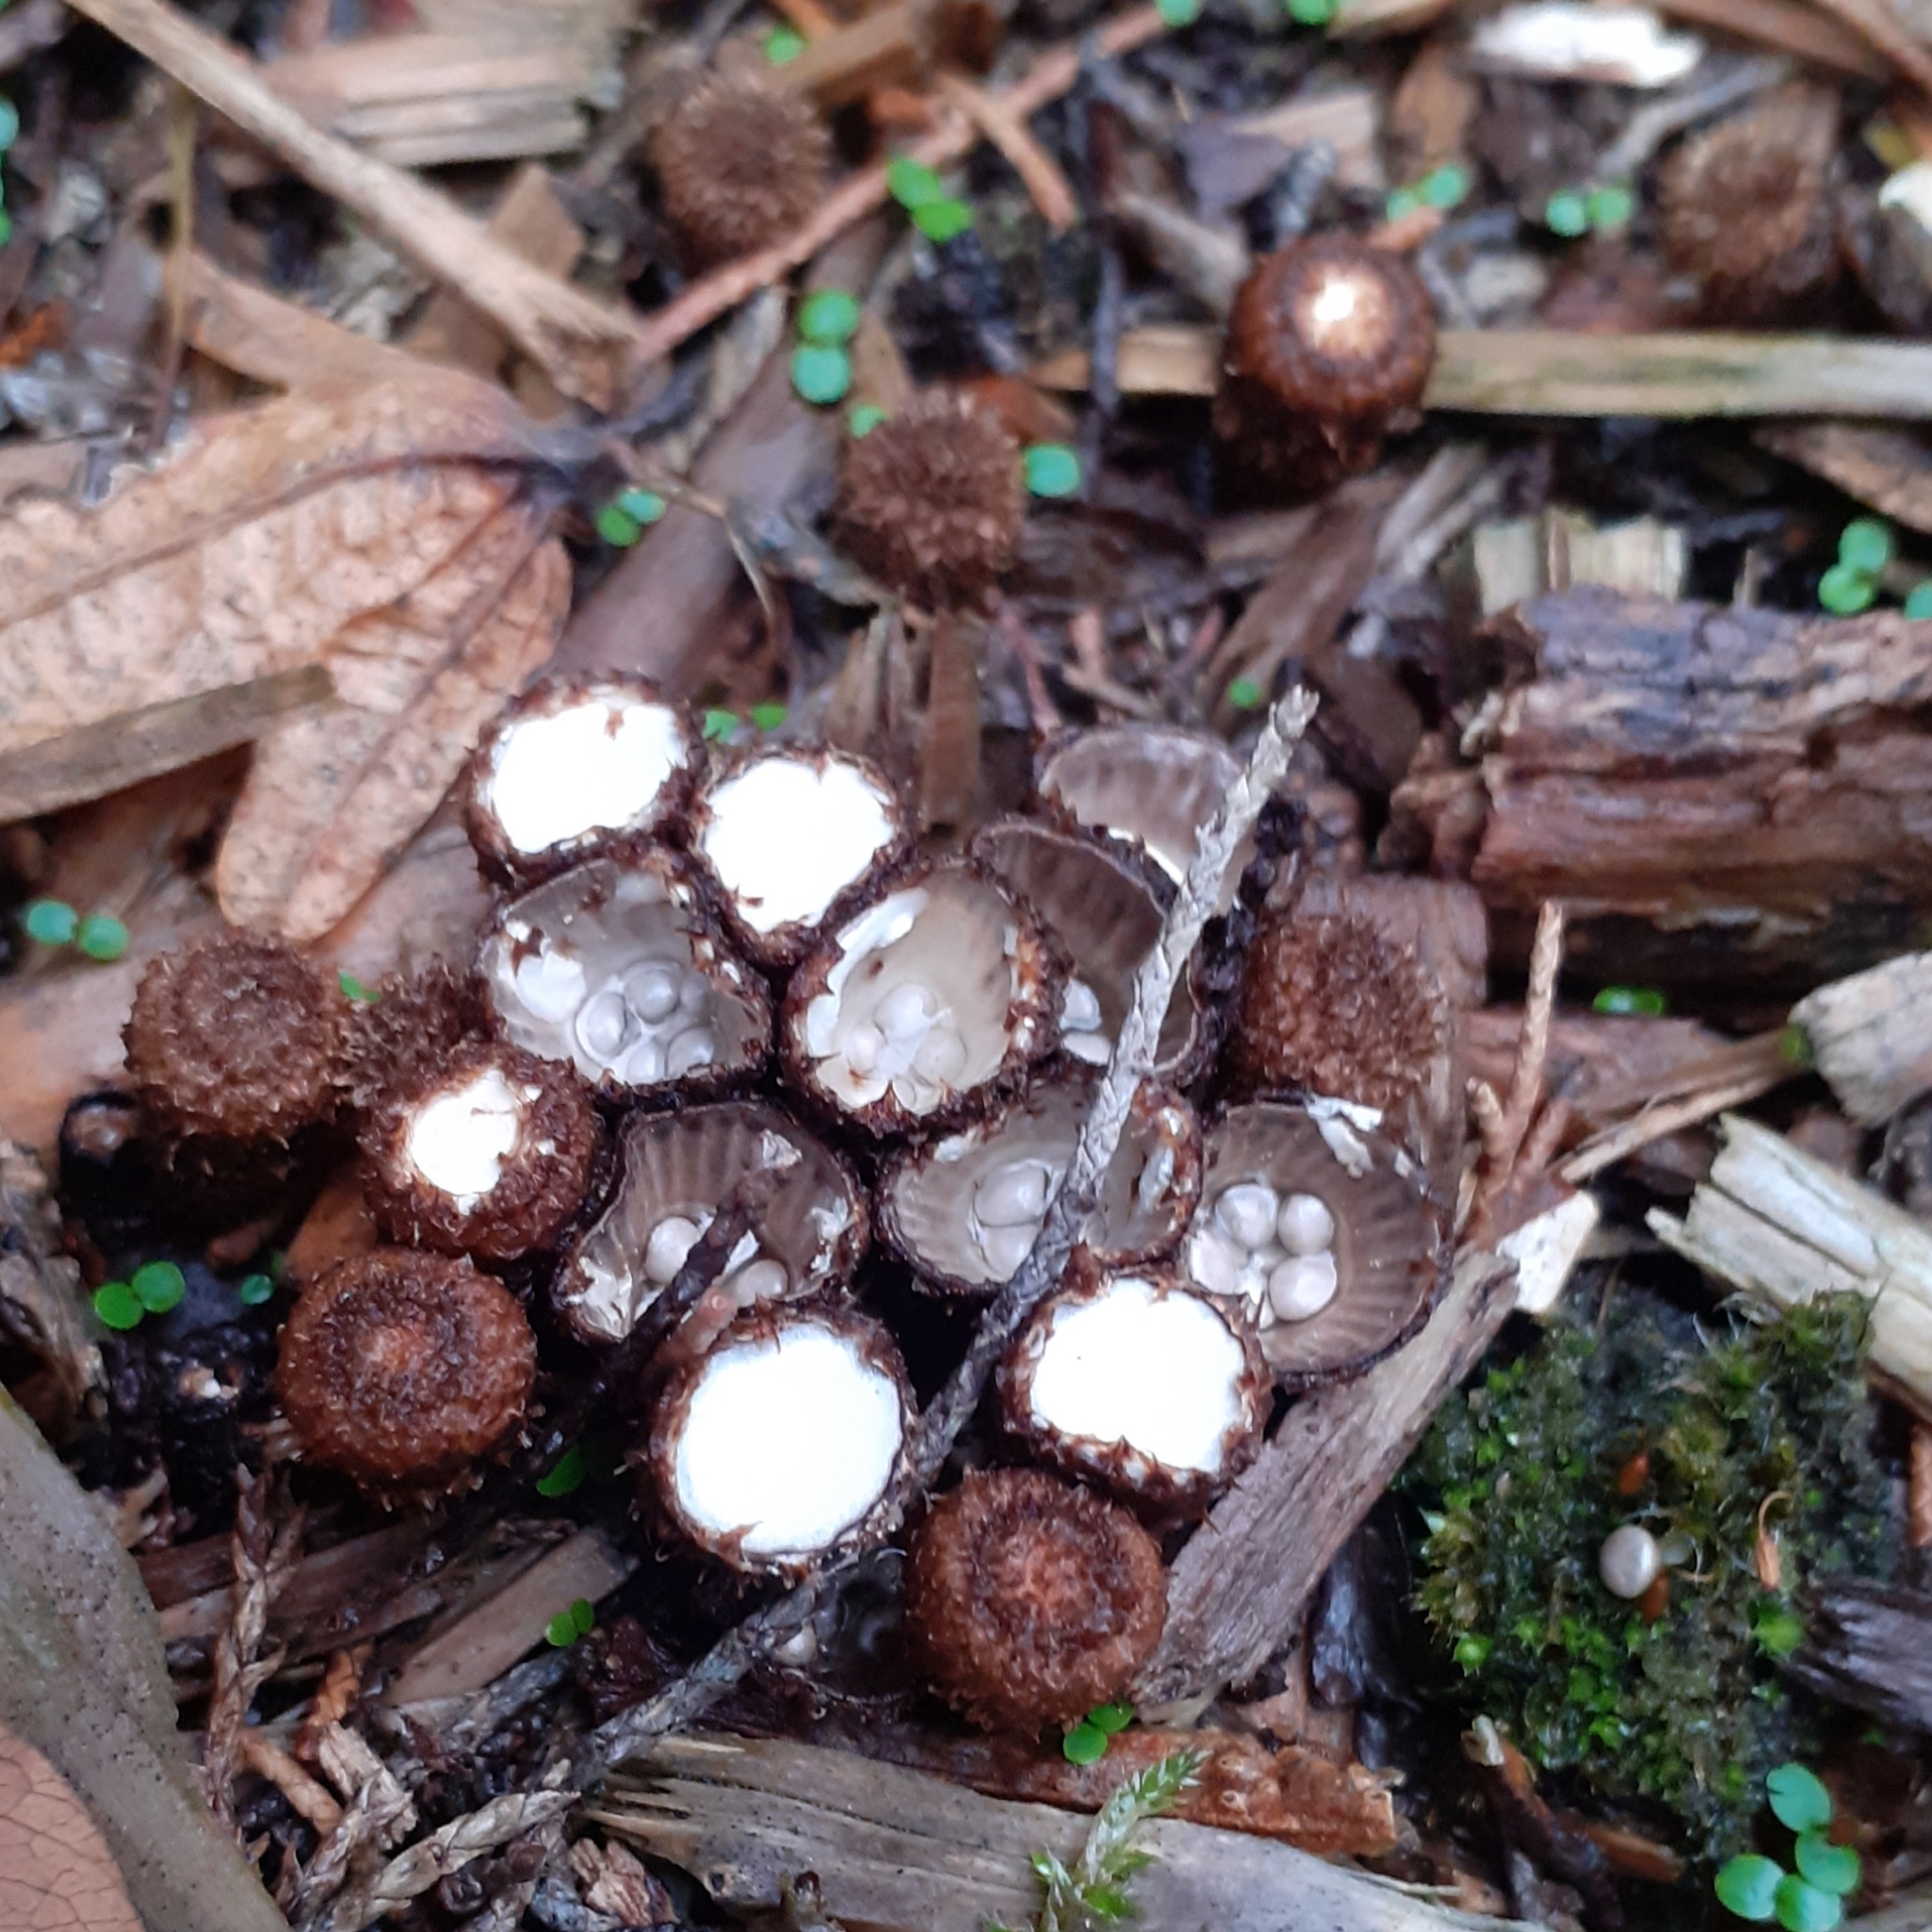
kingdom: Fungi
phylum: Basidiomycota
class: Agaricomycetes
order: Agaricales
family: Agaricaceae
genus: Cyathus
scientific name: Cyathus striatus
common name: Fluted bird's nest
